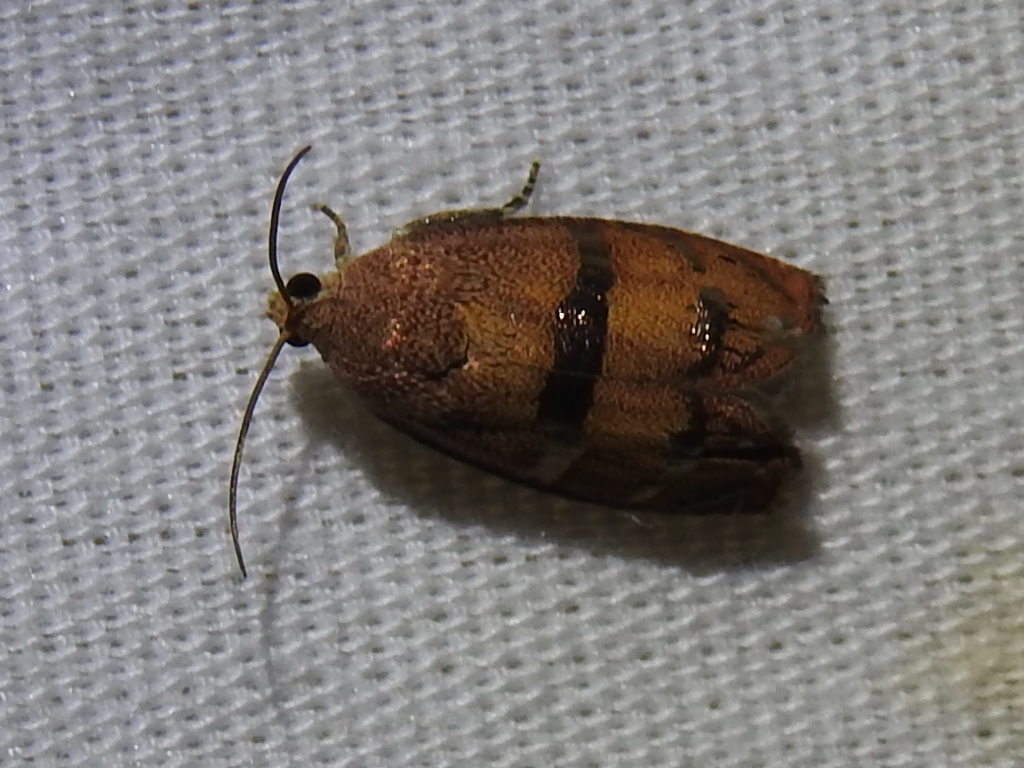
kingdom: Animalia
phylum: Arthropoda
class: Insecta
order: Lepidoptera
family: Tortricidae
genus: Cydia
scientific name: Cydia latiferreana
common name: Filbertworm moth
